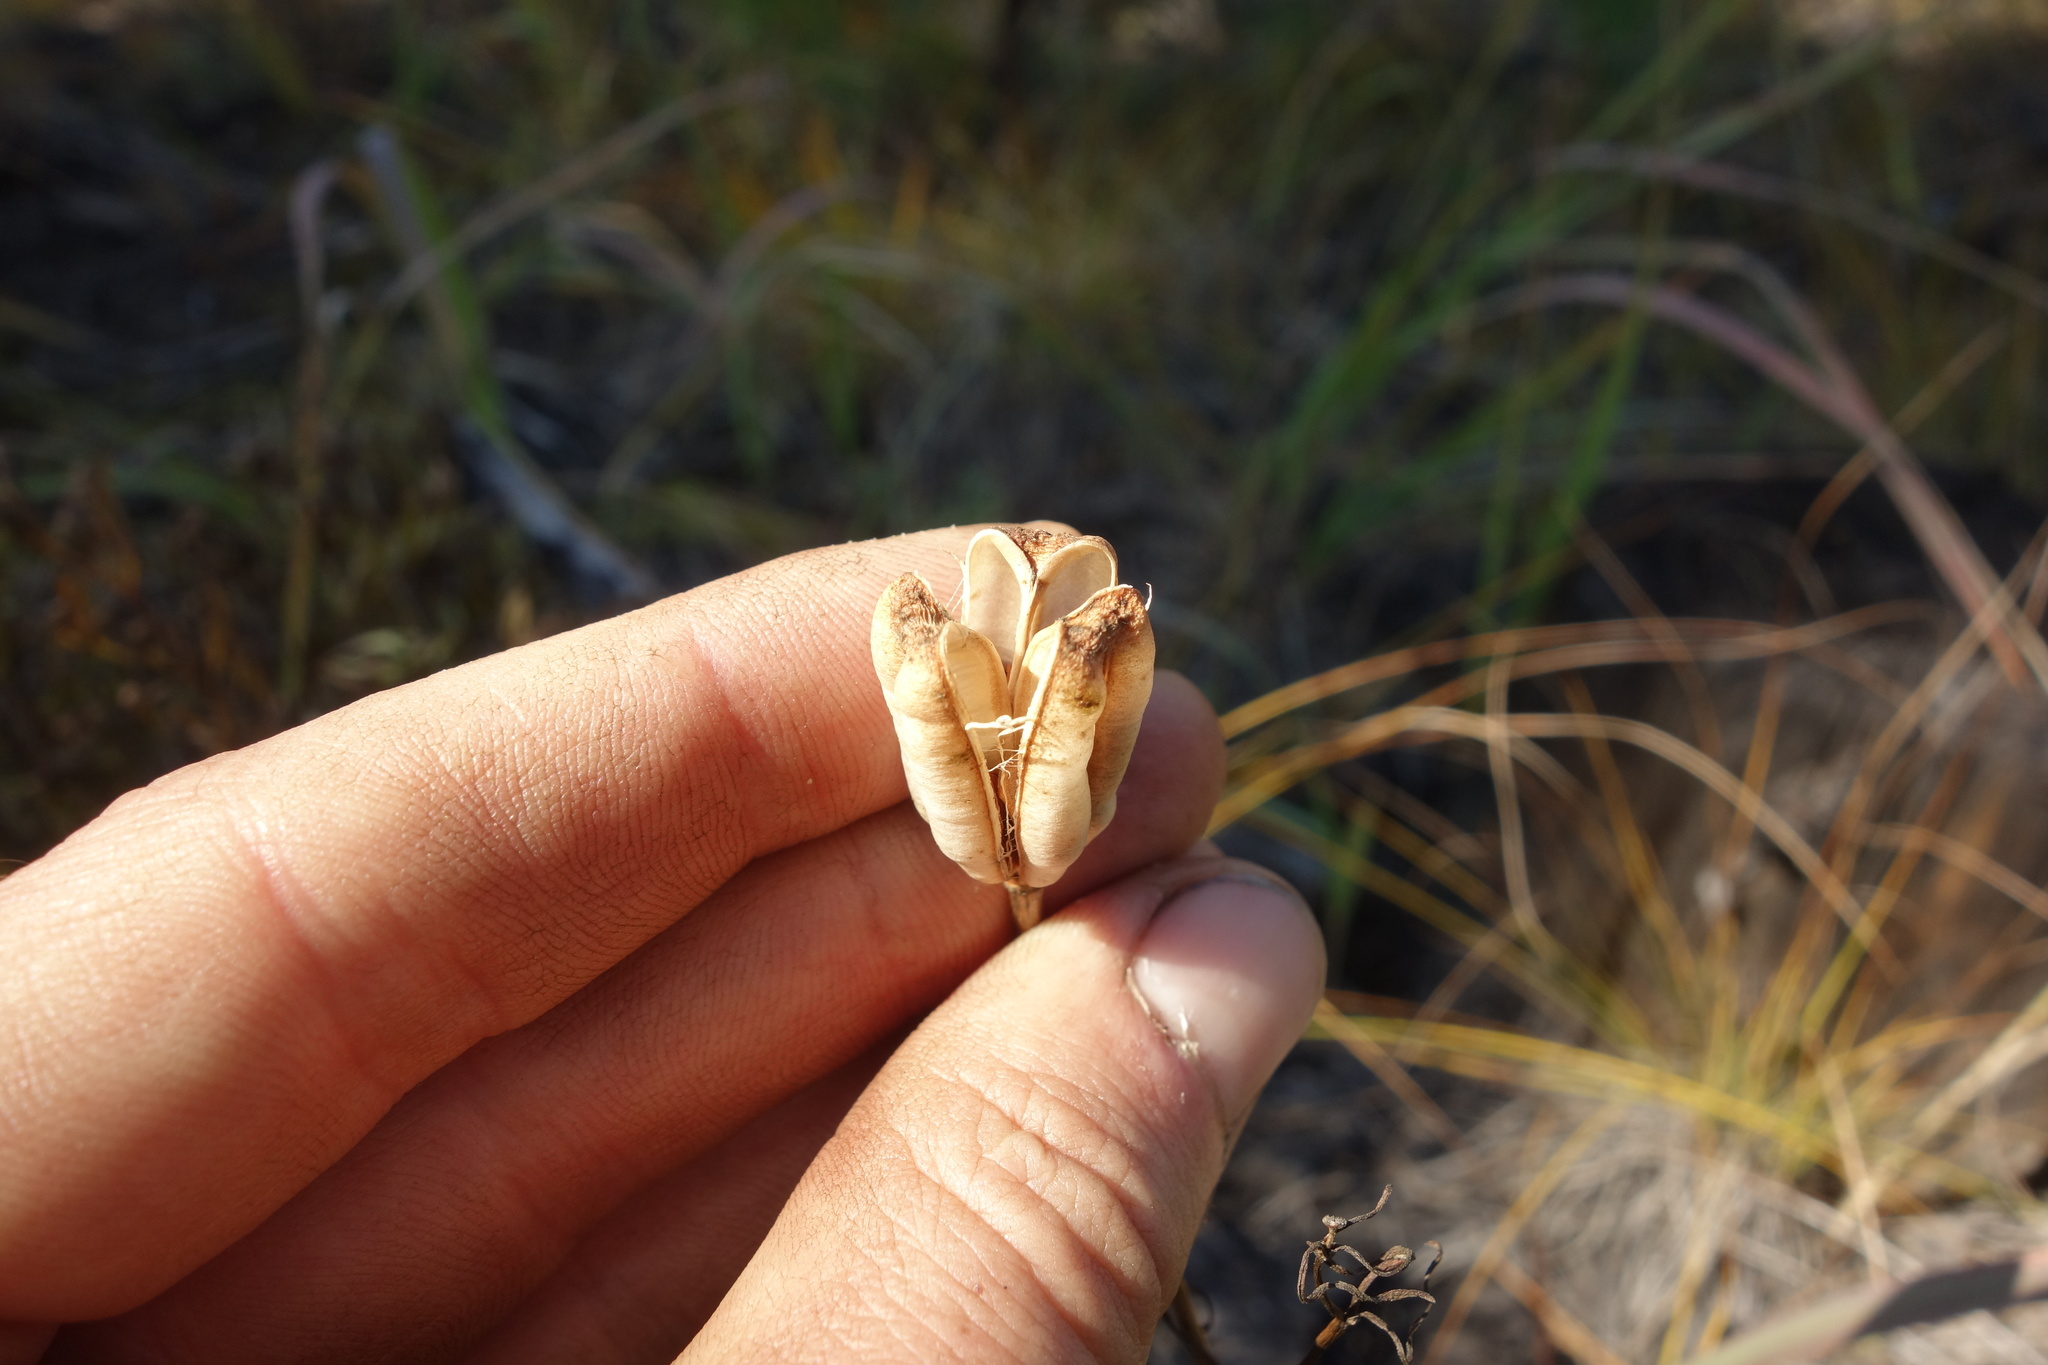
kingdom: Plantae
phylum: Tracheophyta
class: Liliopsida
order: Liliales
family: Liliaceae
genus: Lilium
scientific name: Lilium pumilum
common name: Coral lily
